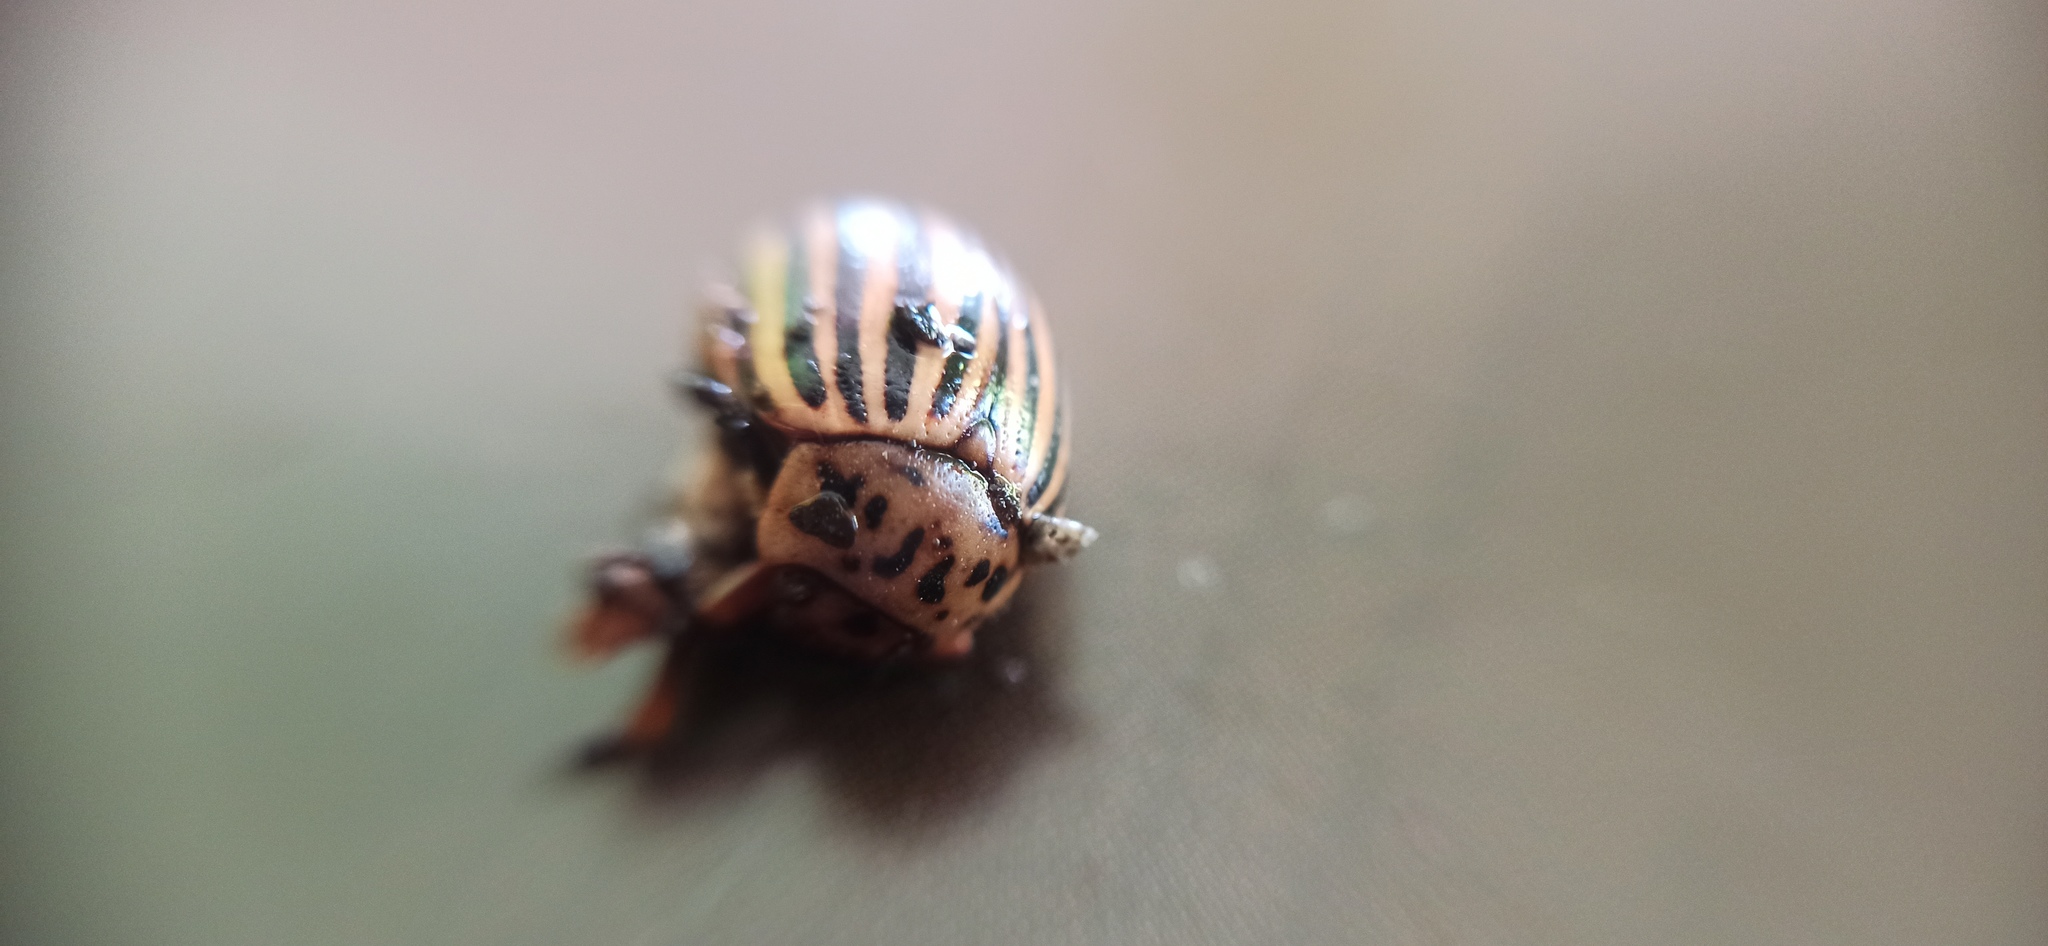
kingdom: Animalia
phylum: Arthropoda
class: Insecta
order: Coleoptera
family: Chrysomelidae
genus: Leptinotarsa
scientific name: Leptinotarsa decemlineata
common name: Colorado potato beetle
